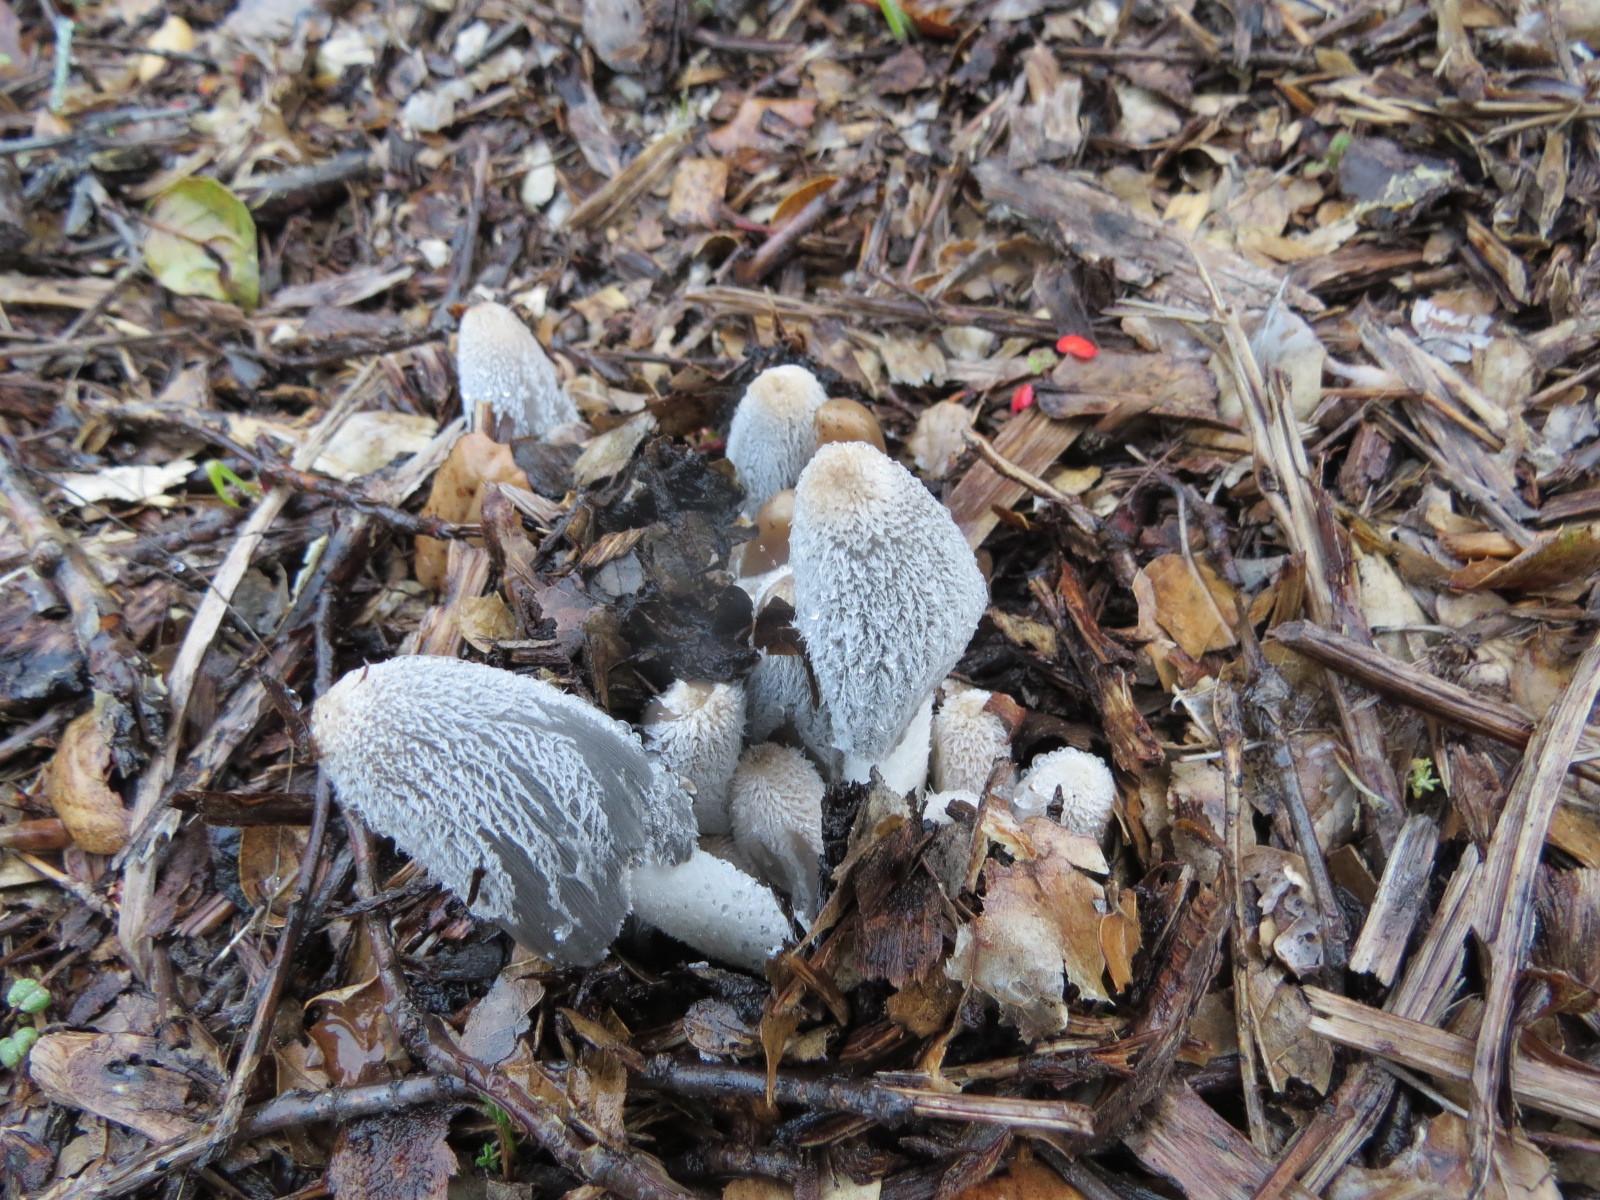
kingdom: Fungi
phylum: Basidiomycota
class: Agaricomycetes
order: Agaricales
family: Psathyrellaceae
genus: Coprinopsis
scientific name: Coprinopsis lagopus
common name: Hare'sfoot inkcap
